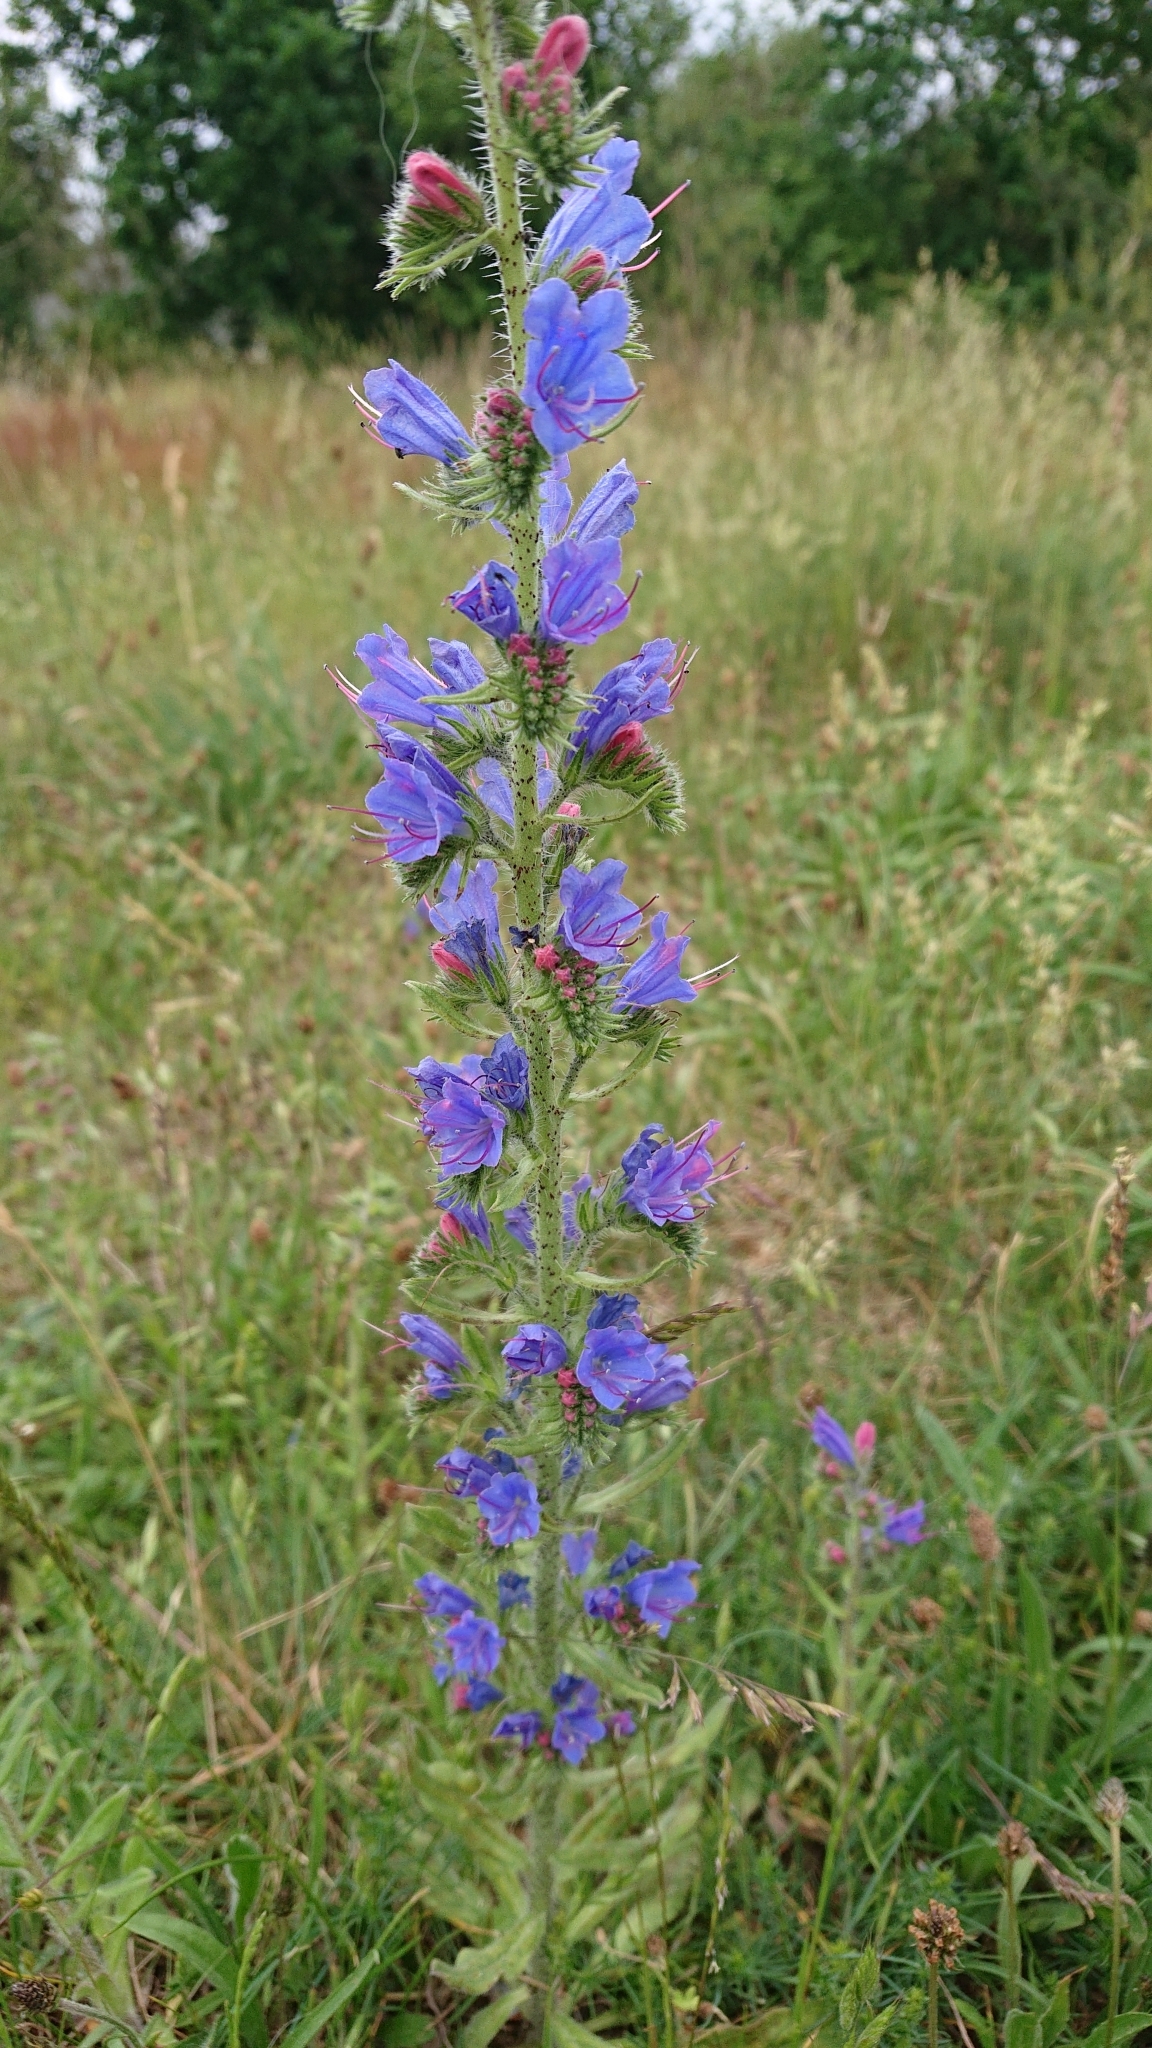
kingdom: Plantae
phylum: Tracheophyta
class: Magnoliopsida
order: Boraginales
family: Boraginaceae
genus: Echium
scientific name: Echium vulgare
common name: Common viper's bugloss
